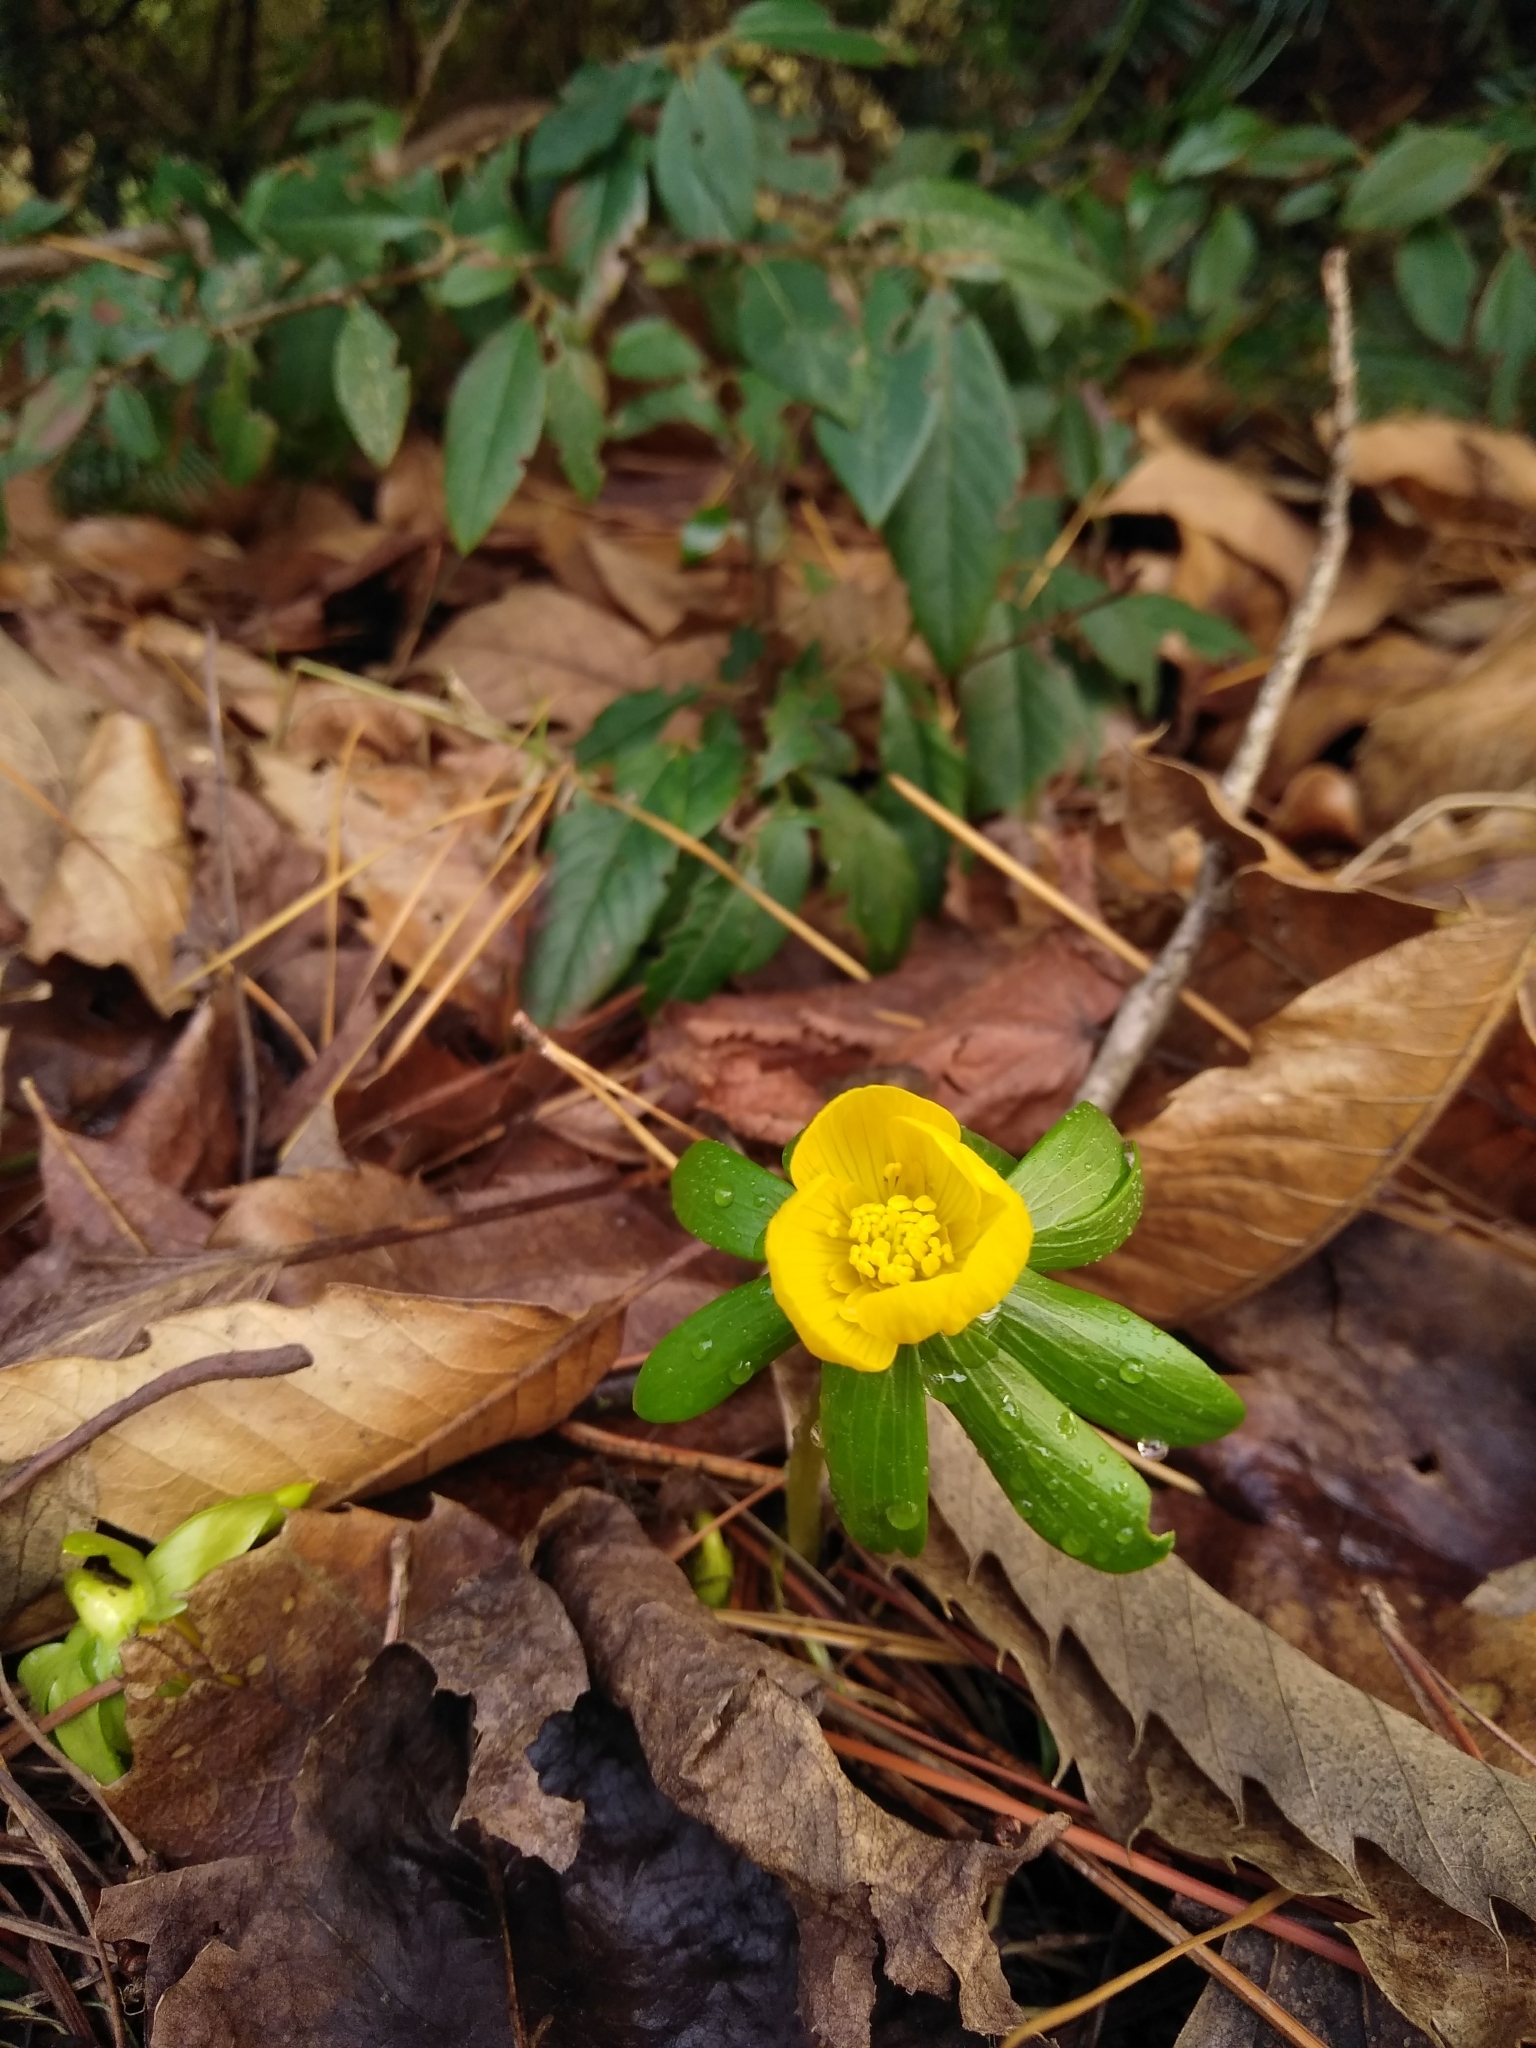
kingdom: Plantae
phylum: Tracheophyta
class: Magnoliopsida
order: Ranunculales
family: Ranunculaceae
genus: Eranthis
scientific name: Eranthis hyemalis
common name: Winter aconite
